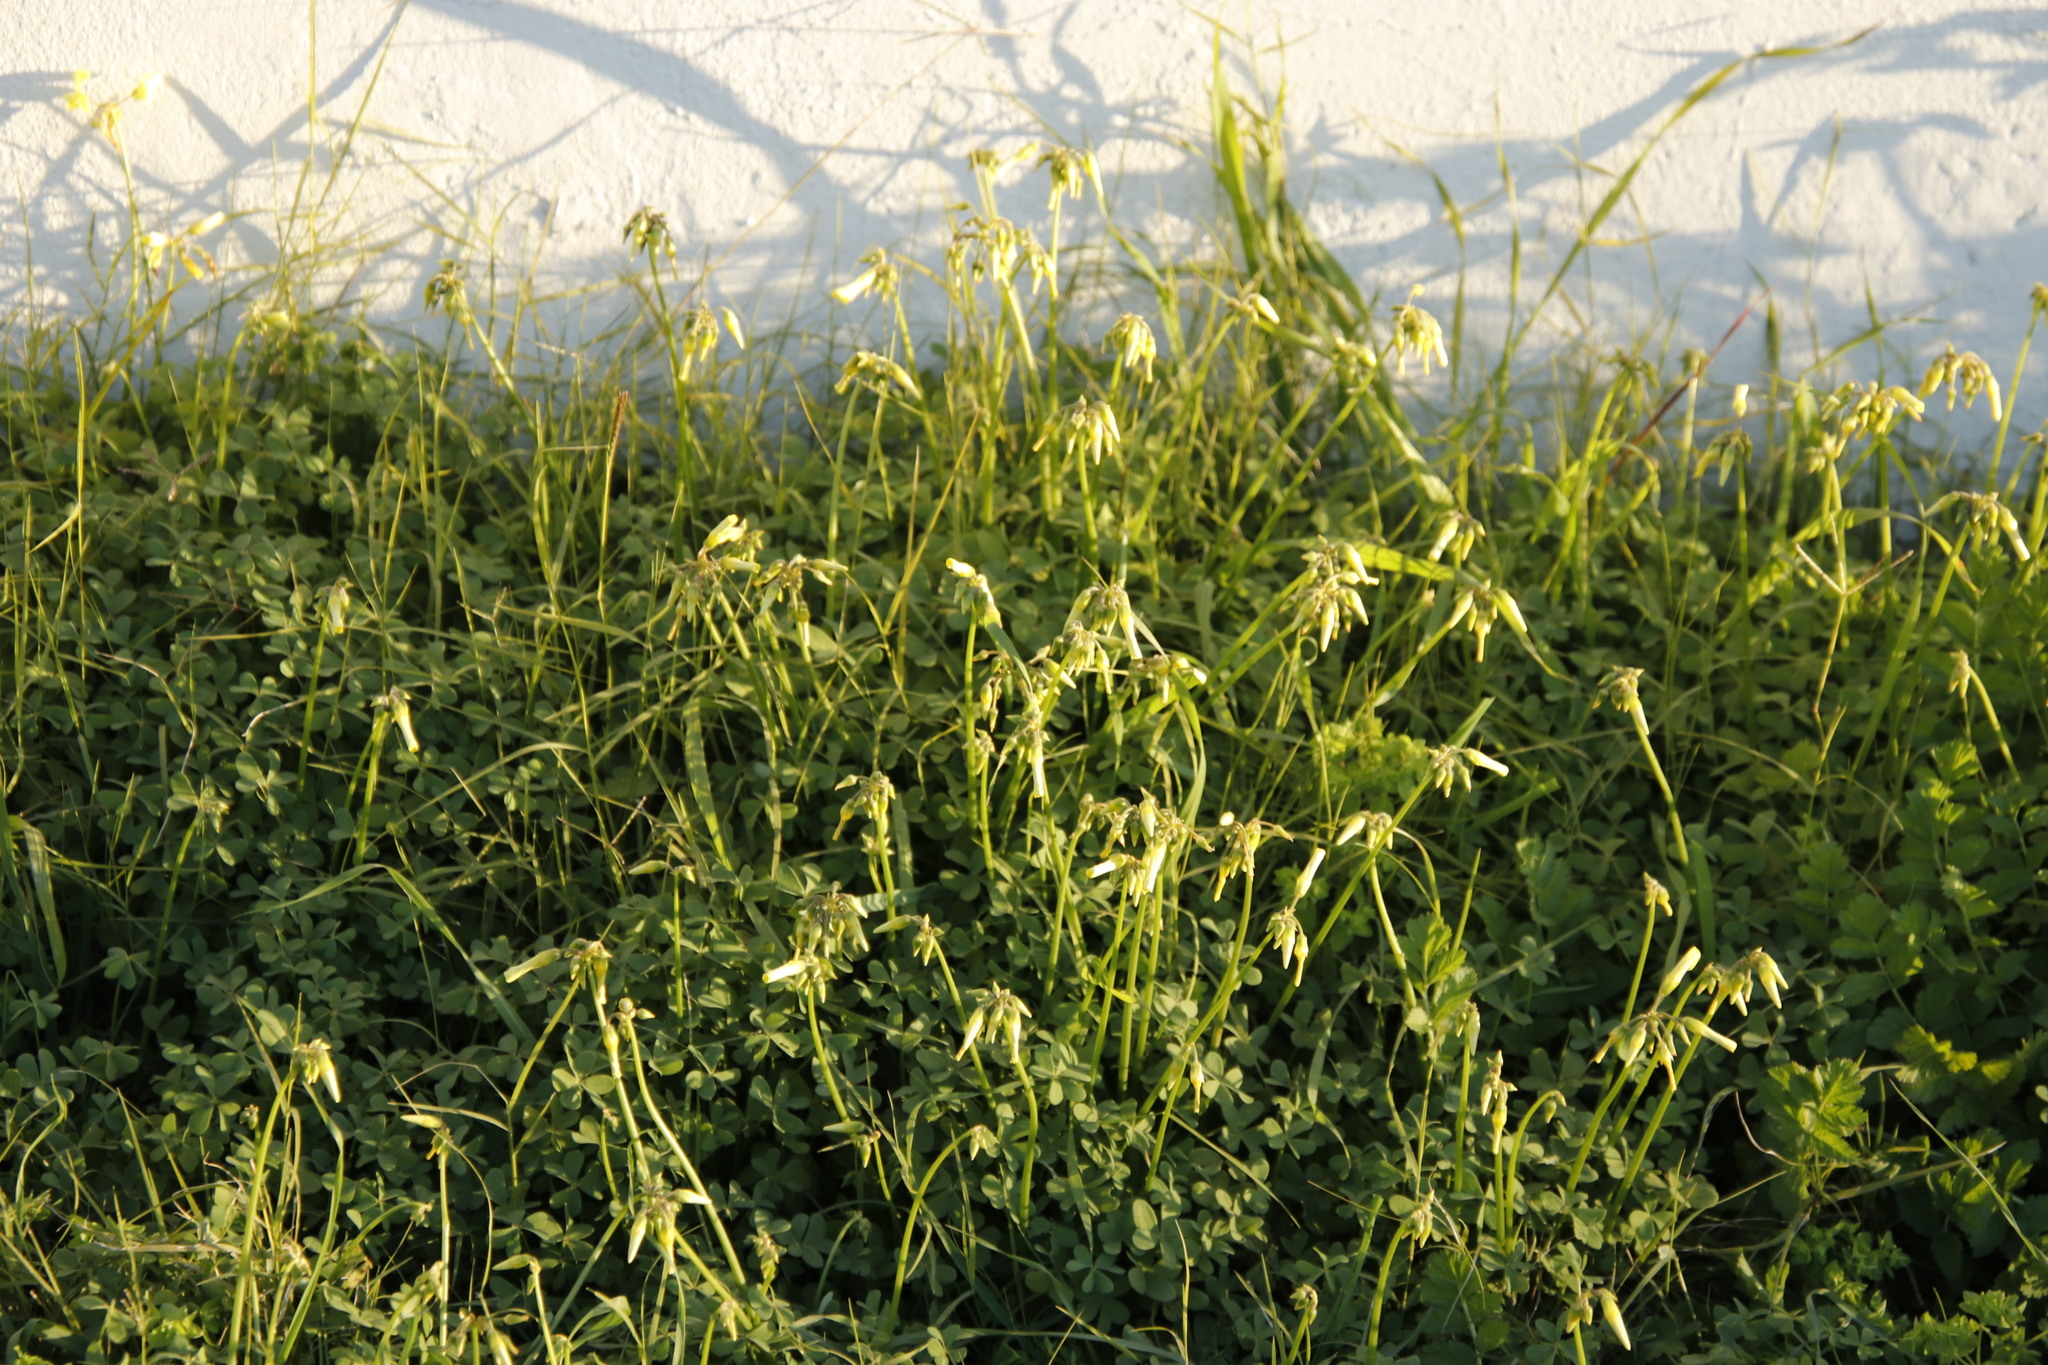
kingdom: Plantae
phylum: Tracheophyta
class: Magnoliopsida
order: Oxalidales
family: Oxalidaceae
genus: Oxalis
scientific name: Oxalis pes-caprae
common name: Bermuda-buttercup
